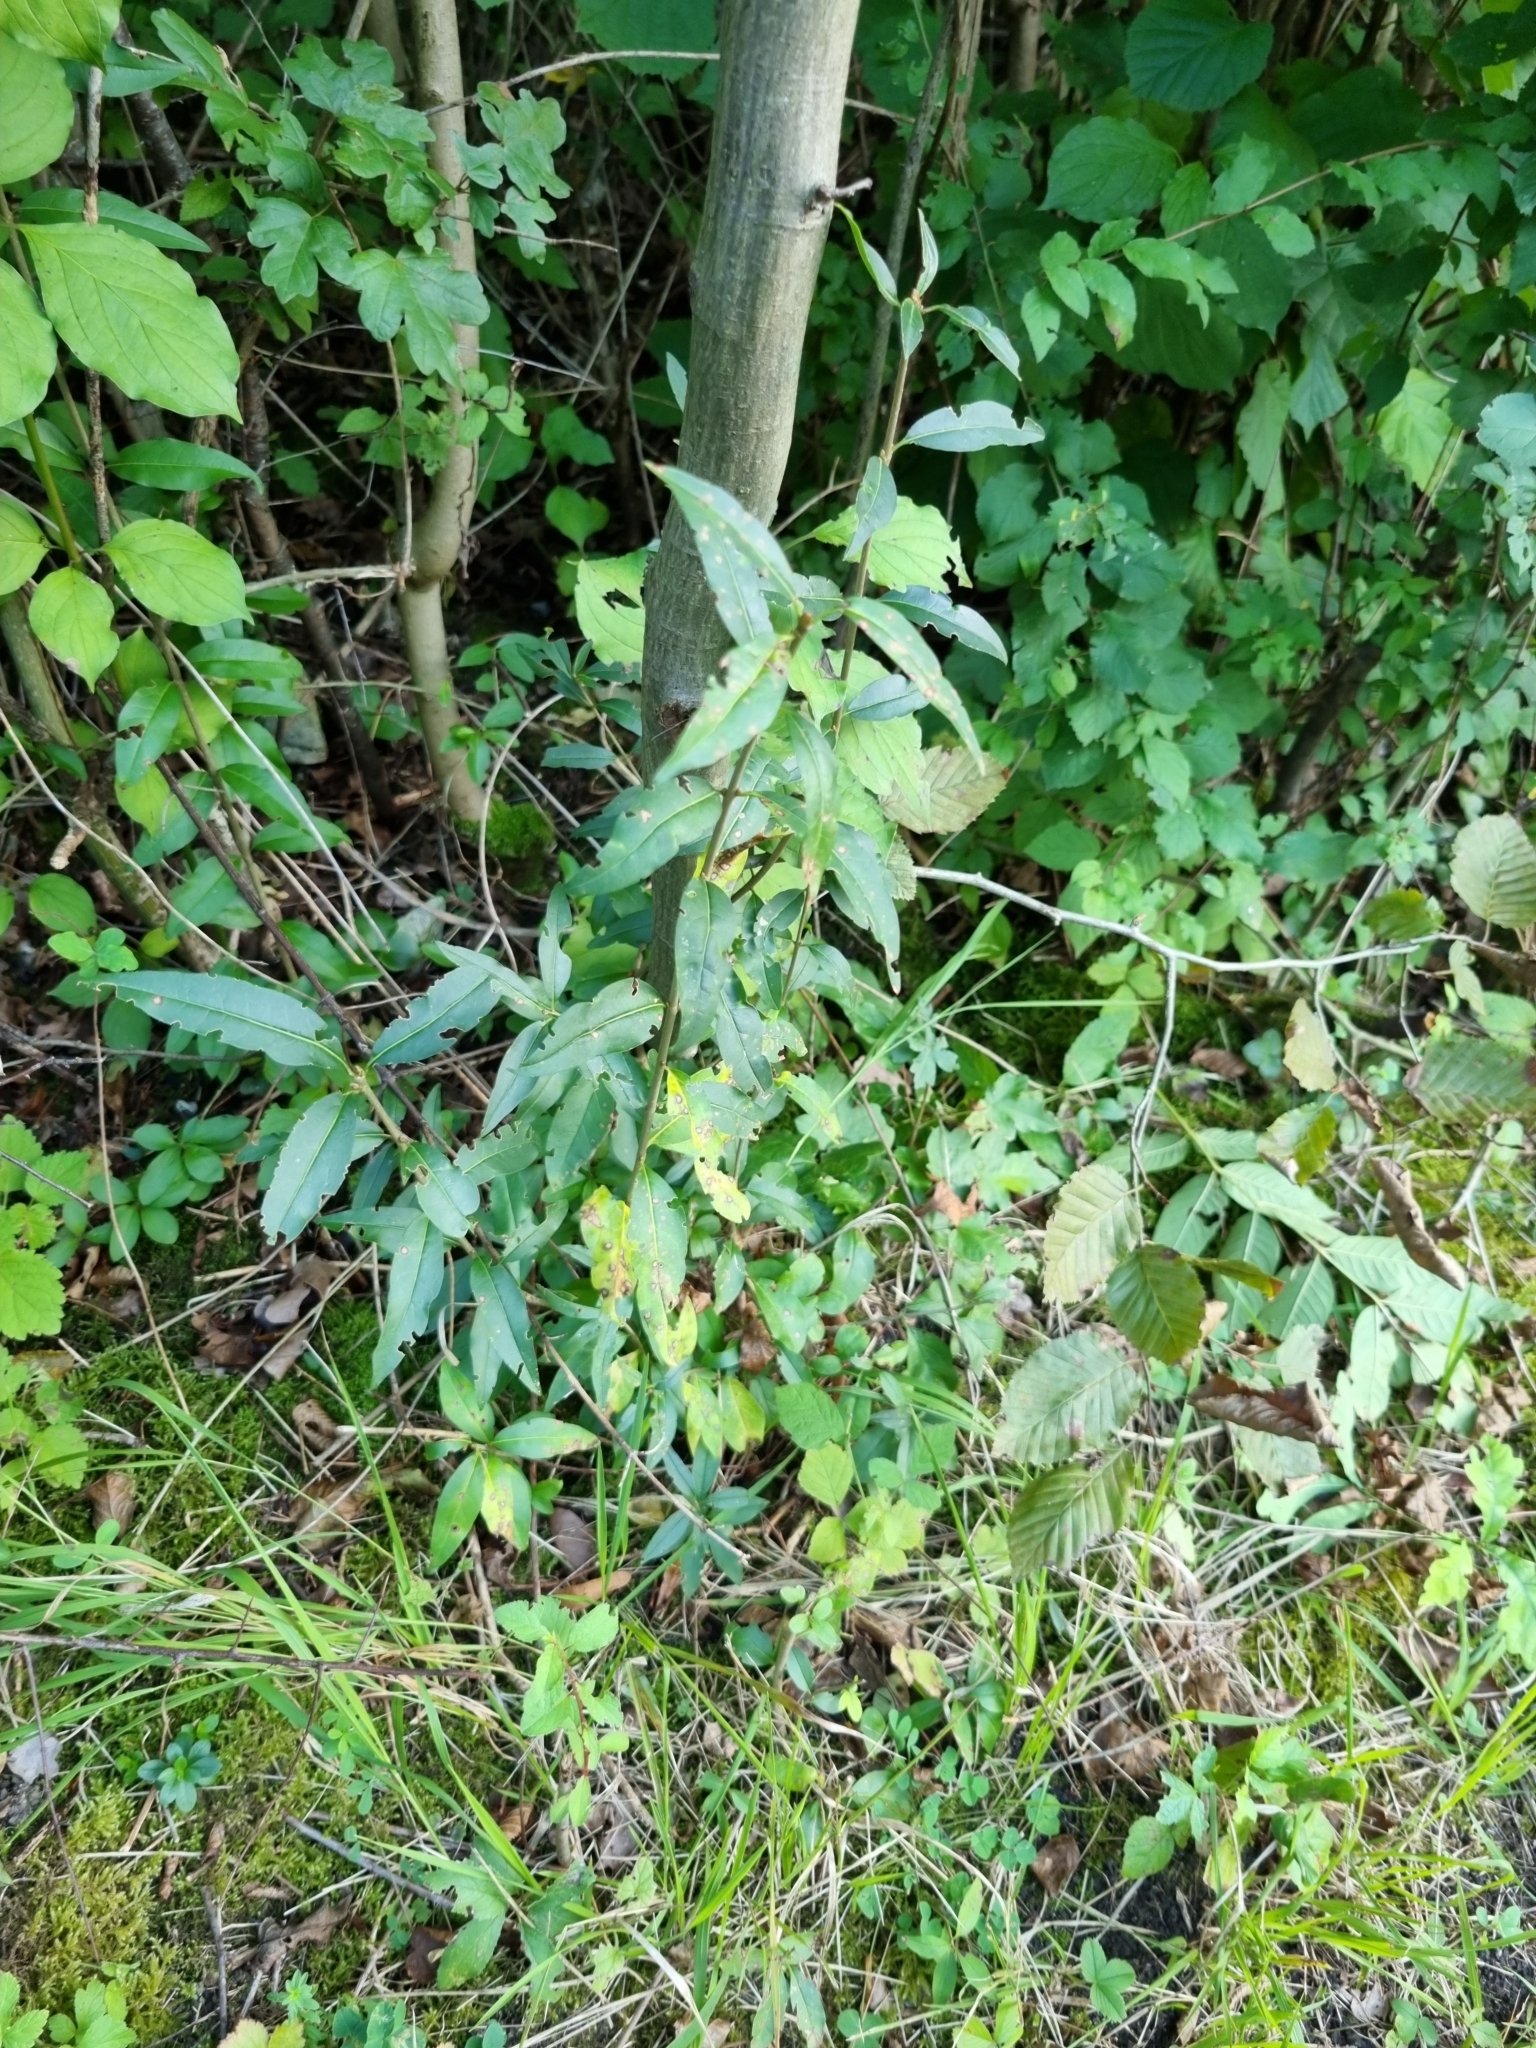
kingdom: Plantae
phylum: Tracheophyta
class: Magnoliopsida
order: Lamiales
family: Oleaceae
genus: Ligustrum
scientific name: Ligustrum vulgare
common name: Wild privet
